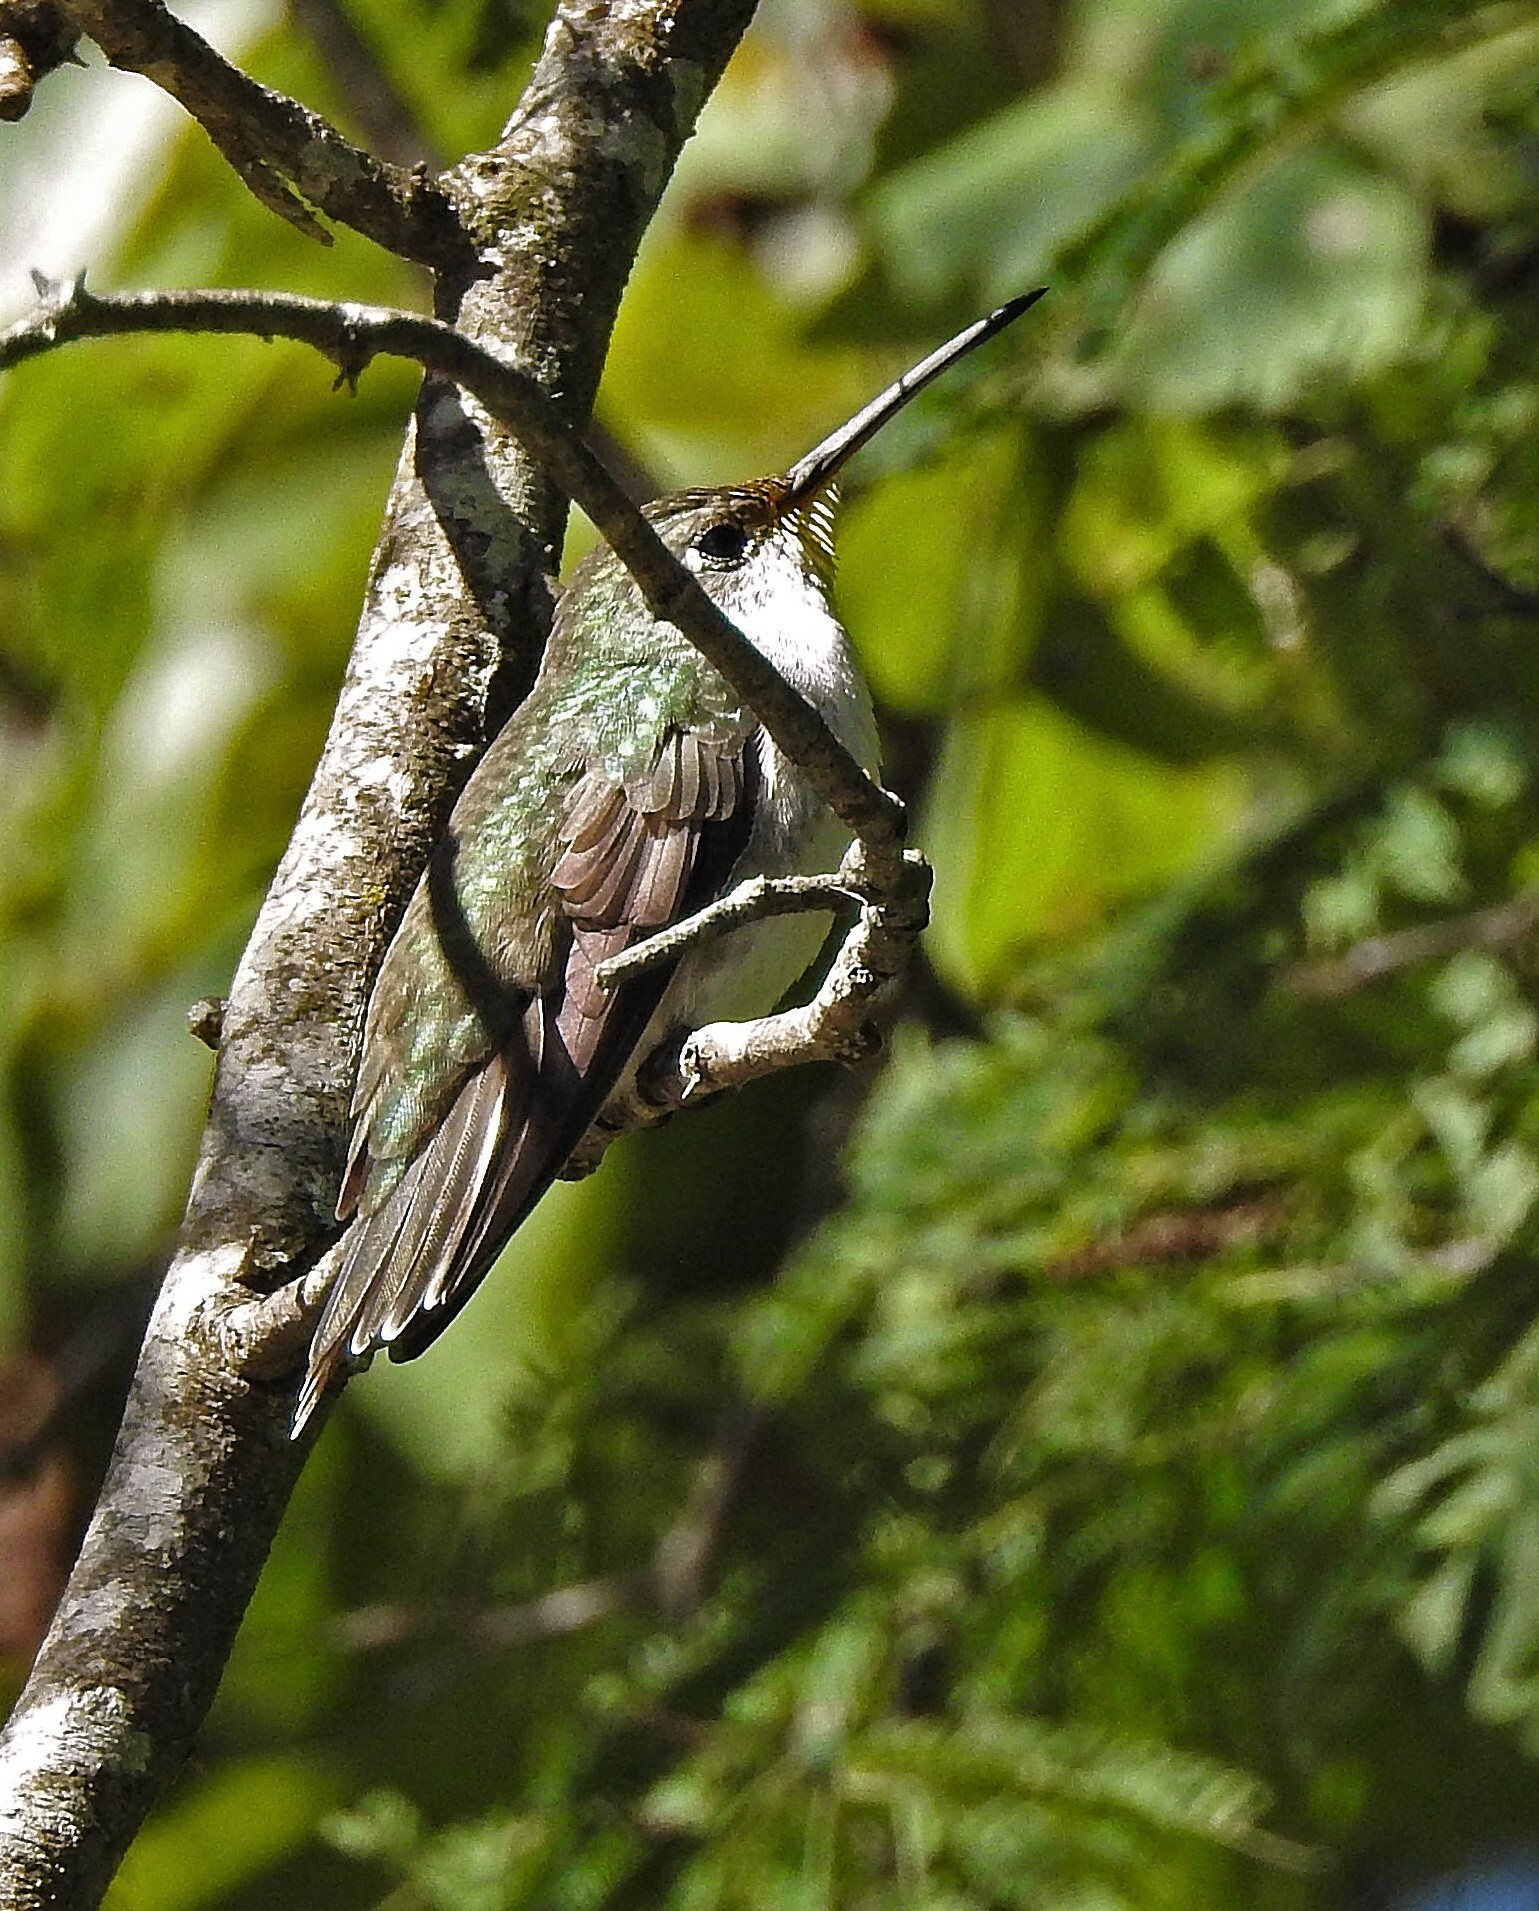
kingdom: Animalia
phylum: Chordata
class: Aves
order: Apodiformes
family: Trochilidae
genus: Elliotomyia
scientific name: Elliotomyia chionogaster
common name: White-bellied hummingbird
